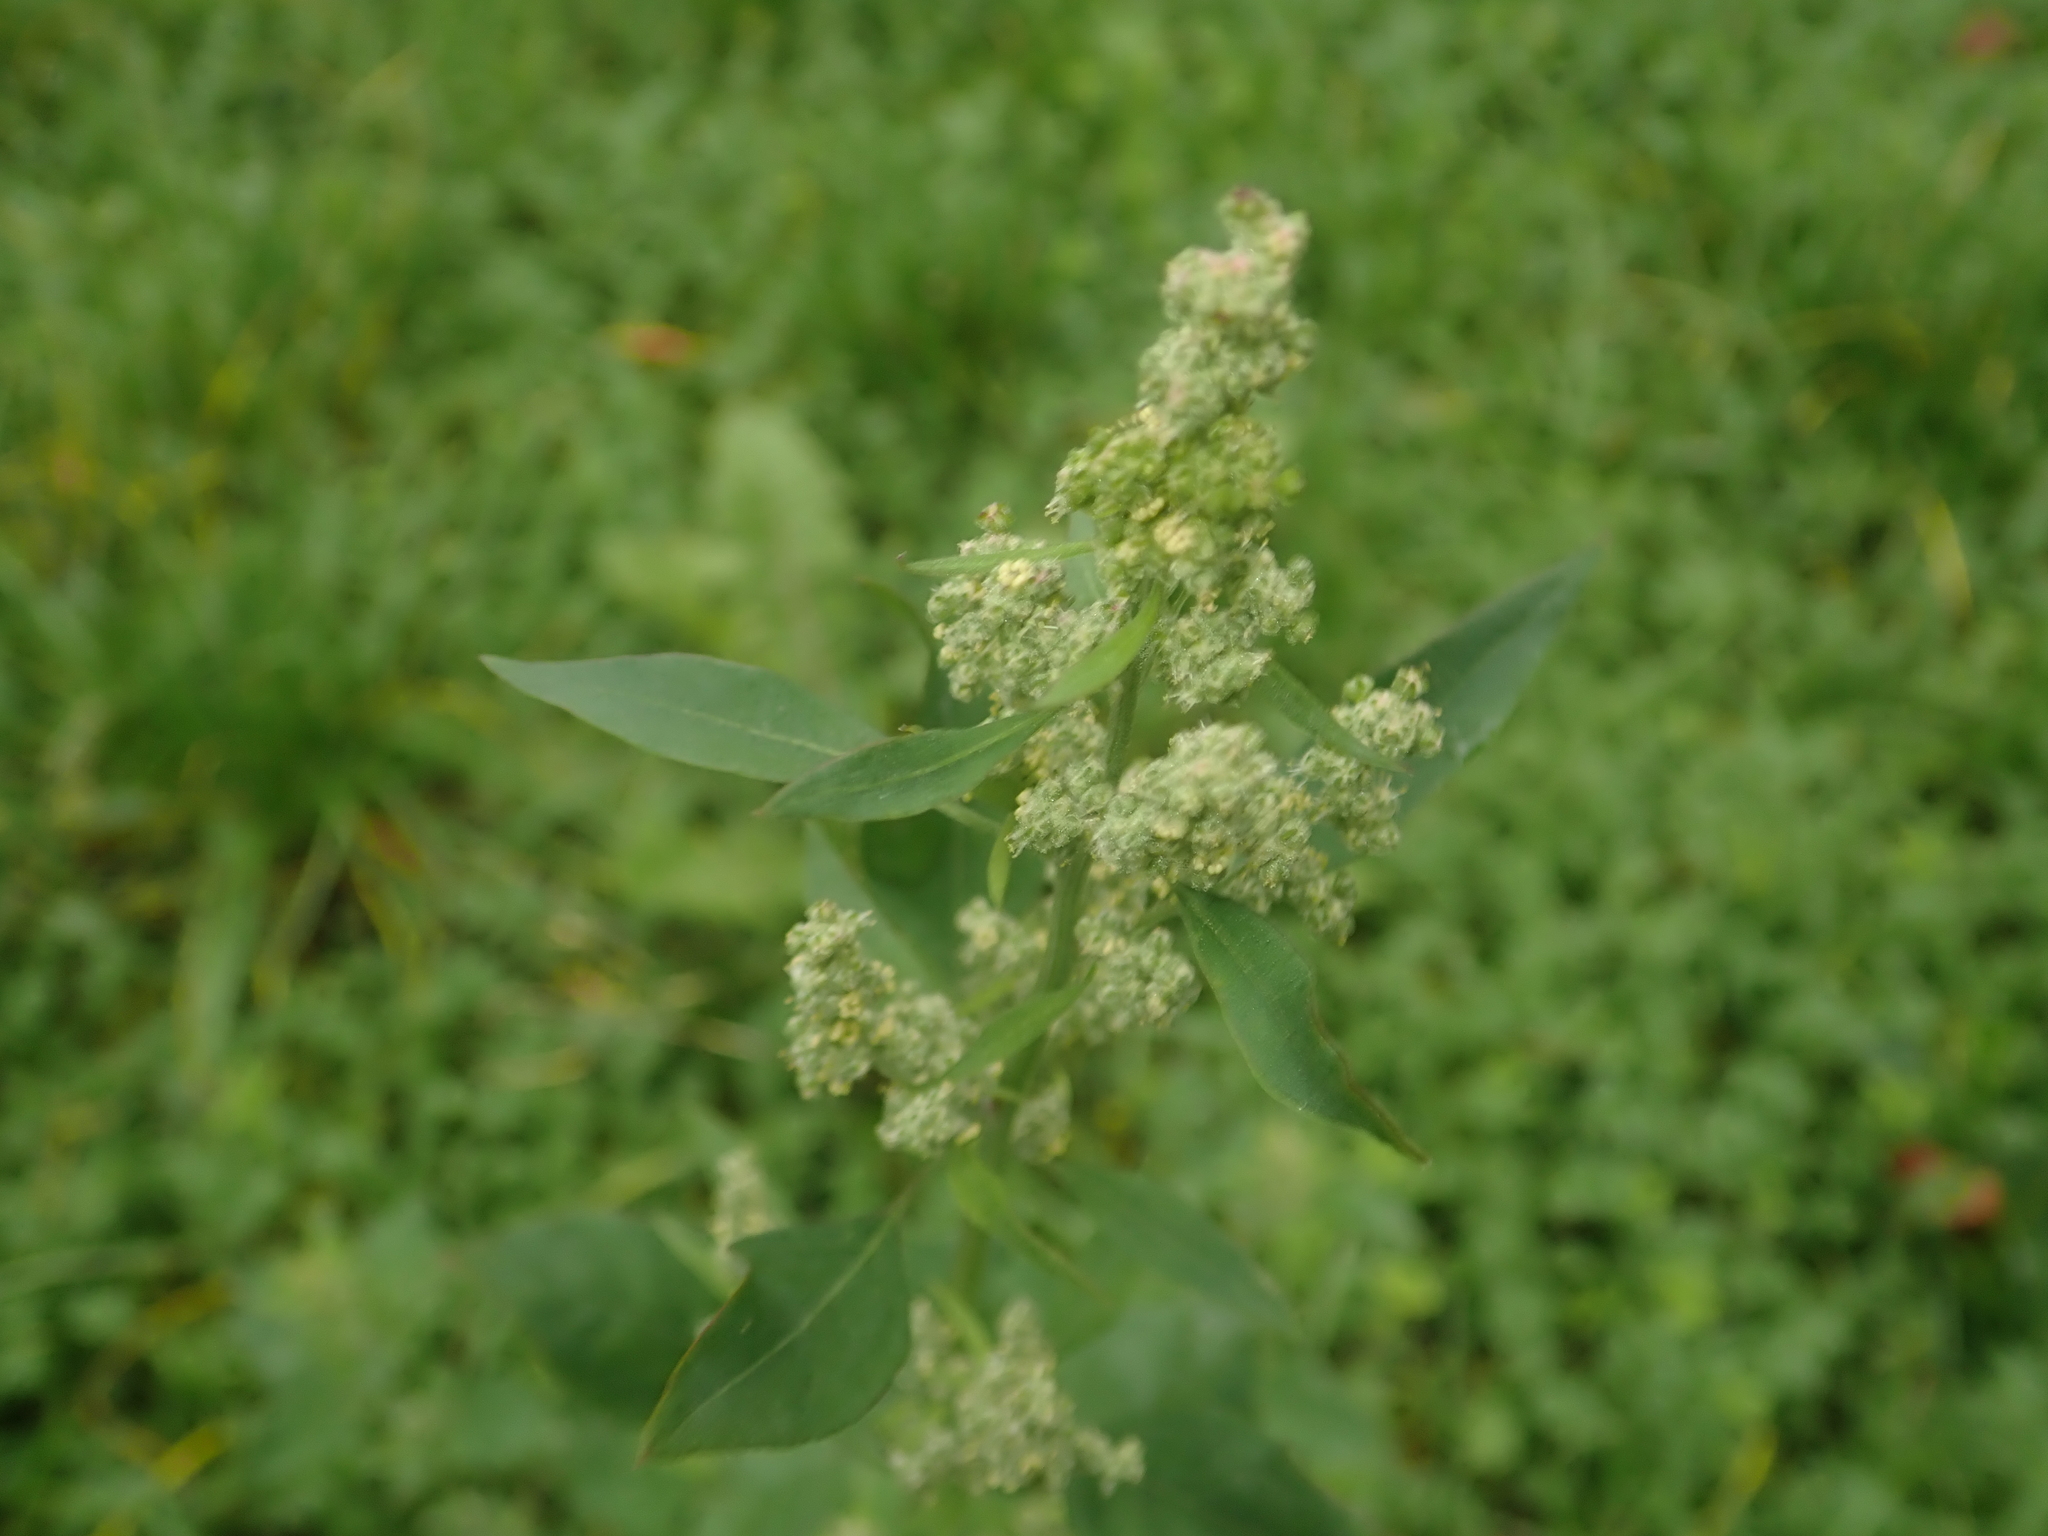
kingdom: Plantae
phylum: Tracheophyta
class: Magnoliopsida
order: Caryophyllales
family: Amaranthaceae
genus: Chenopodium
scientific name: Chenopodium album
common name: Fat-hen
